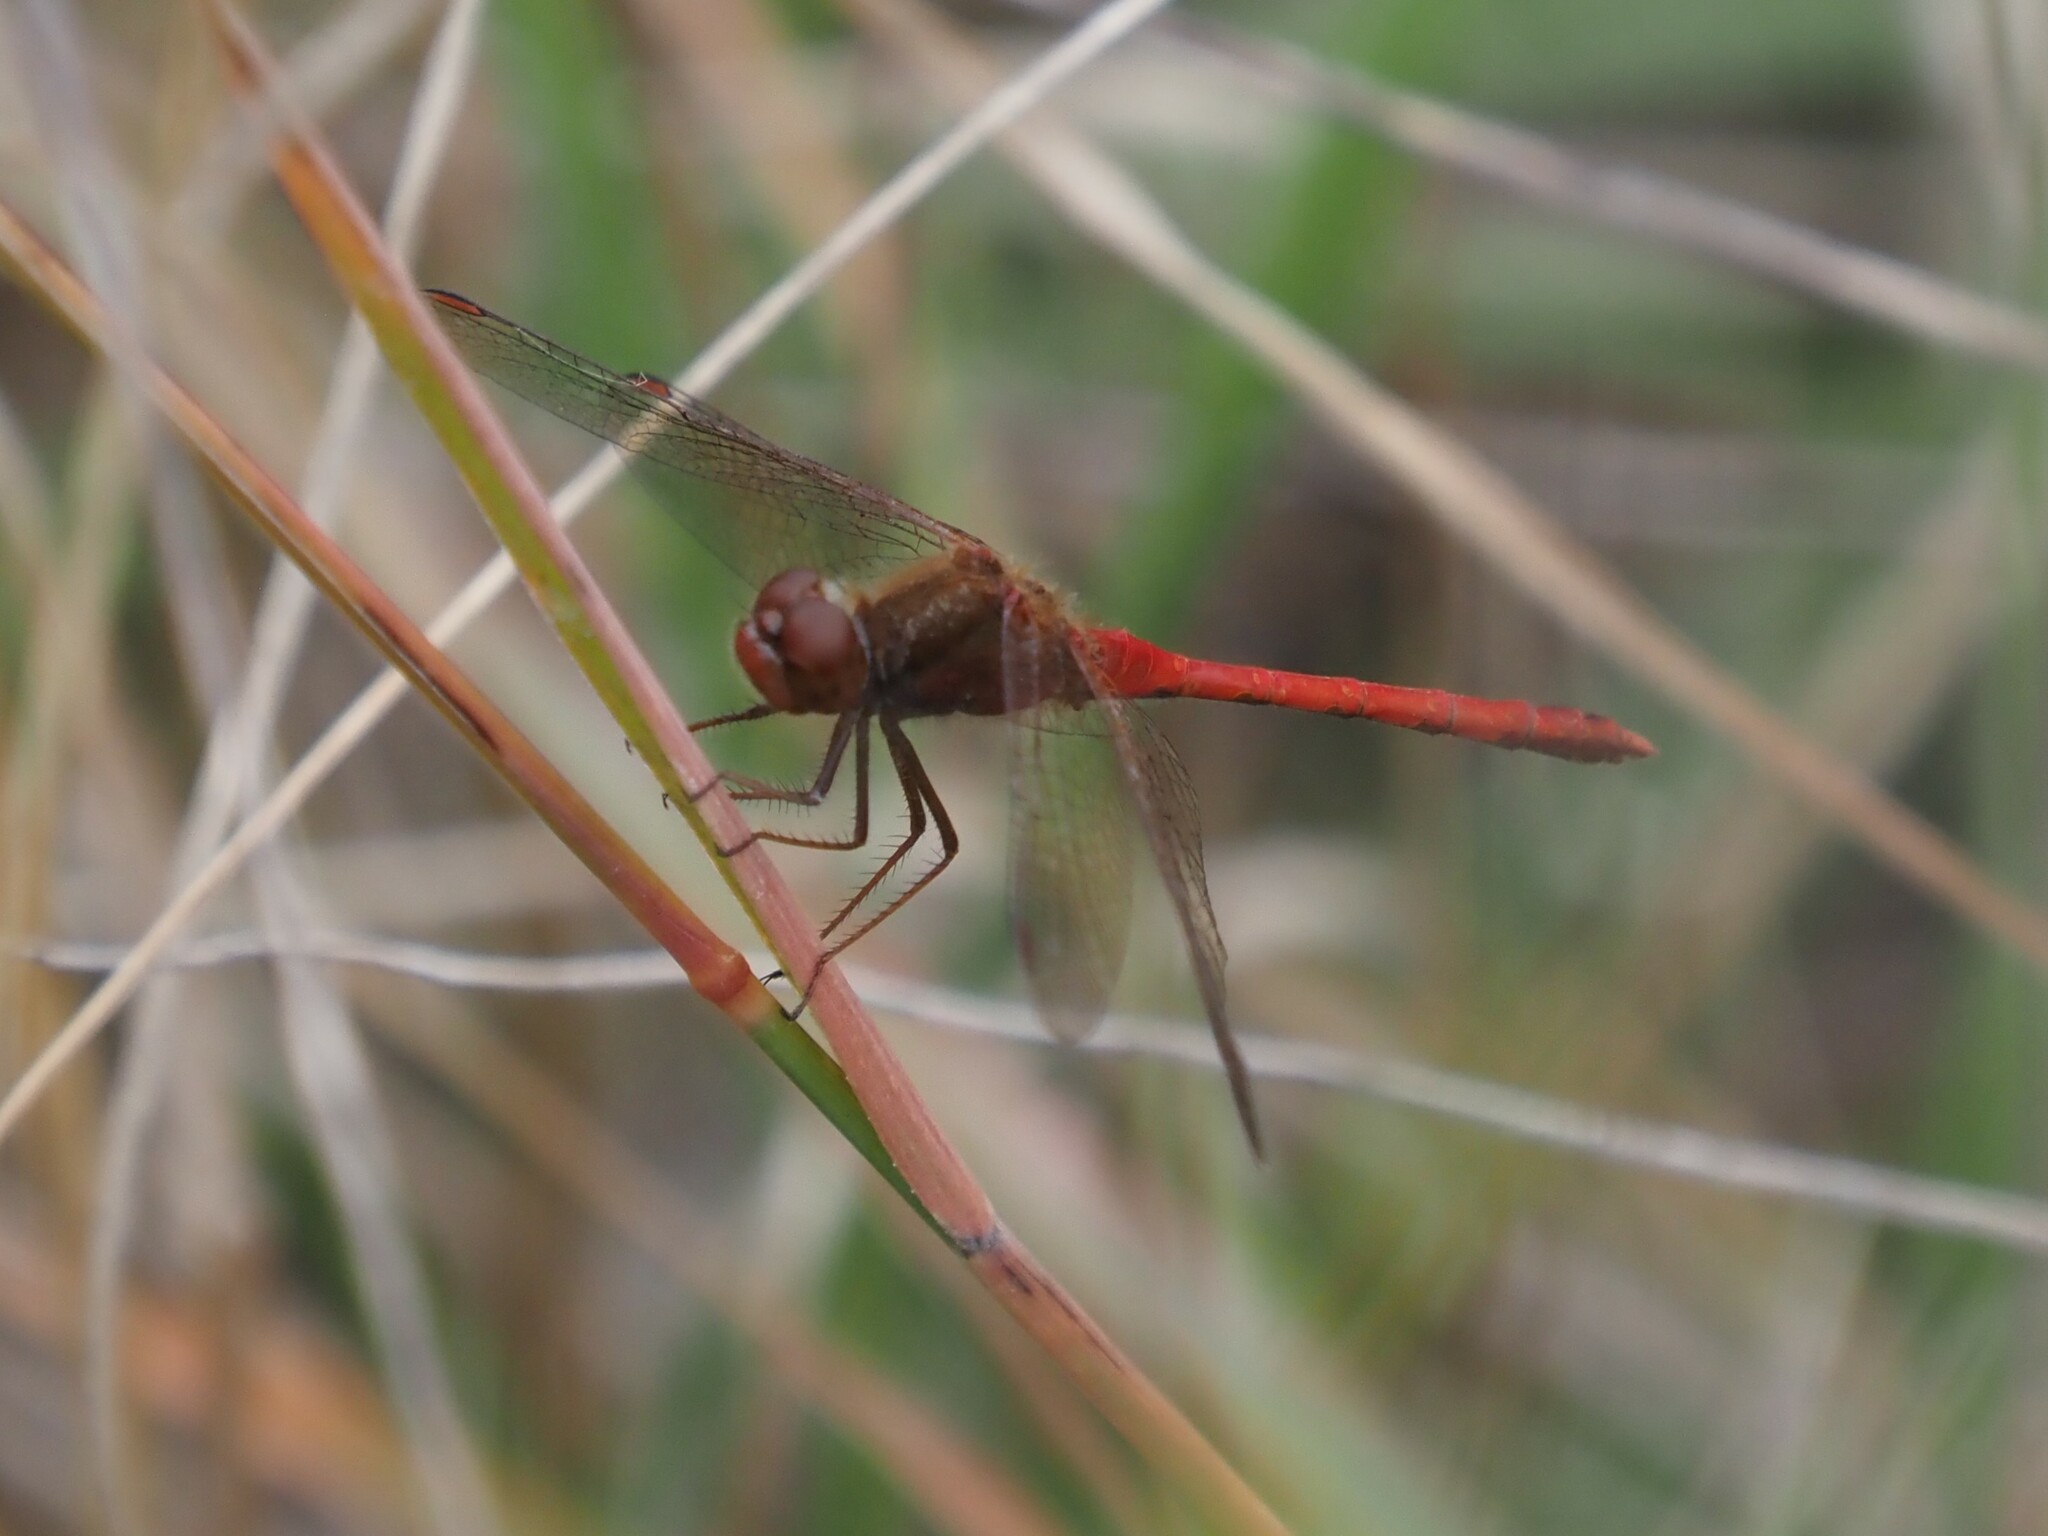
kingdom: Animalia
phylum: Arthropoda
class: Insecta
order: Odonata
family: Libellulidae
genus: Sympetrum
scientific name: Sympetrum vicinum
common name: Autumn meadowhawk
